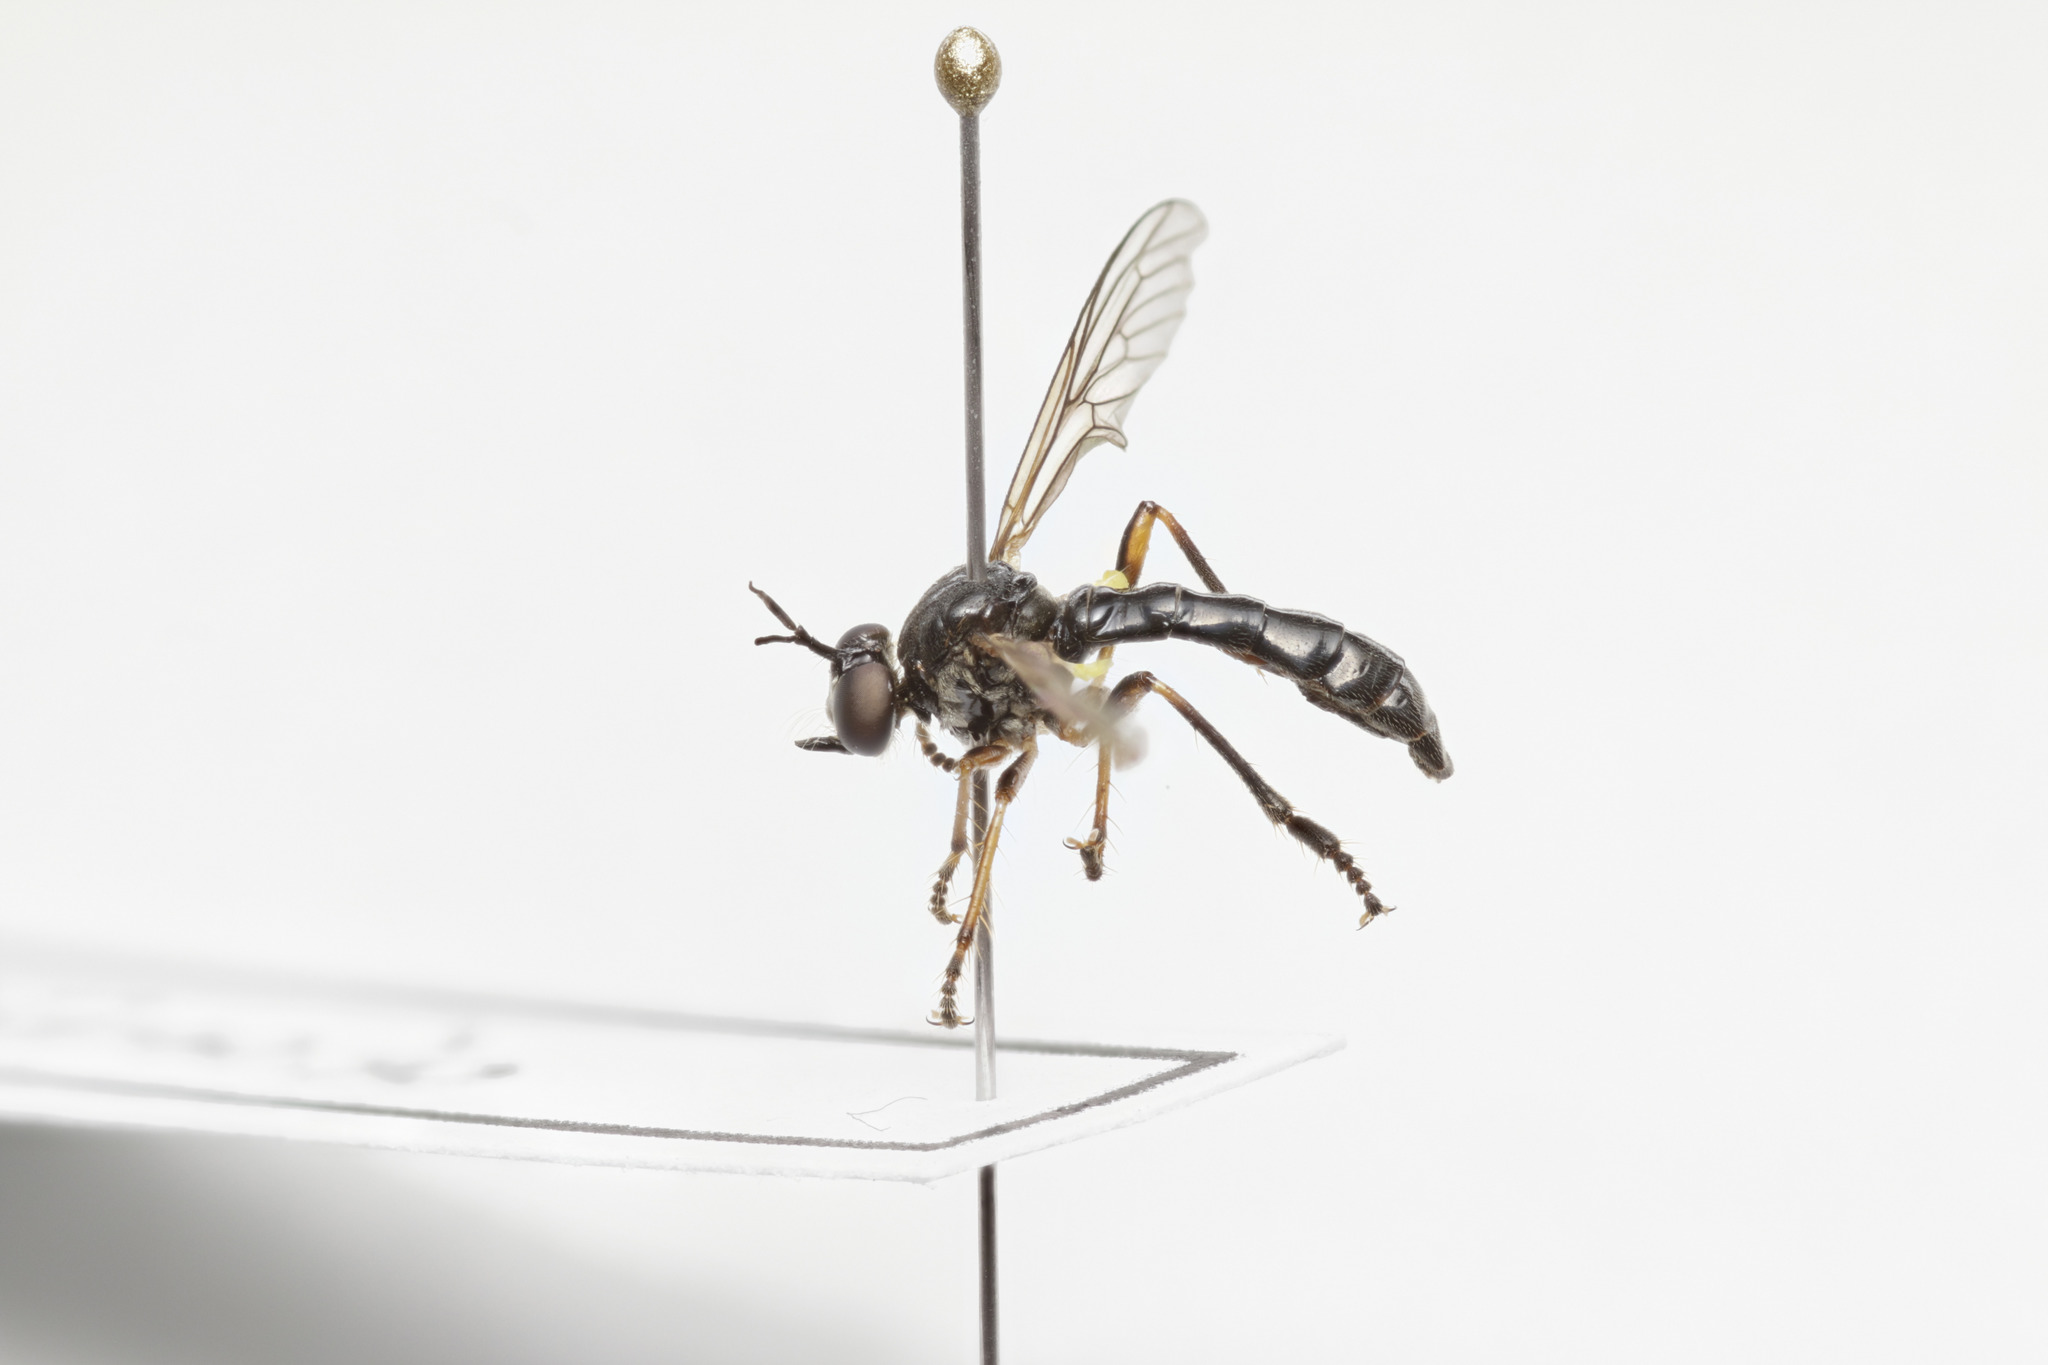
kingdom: Animalia
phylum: Arthropoda
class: Insecta
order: Diptera
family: Asilidae
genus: Dioctria
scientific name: Dioctria hyalipennis
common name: Stripe-legged robberfly
